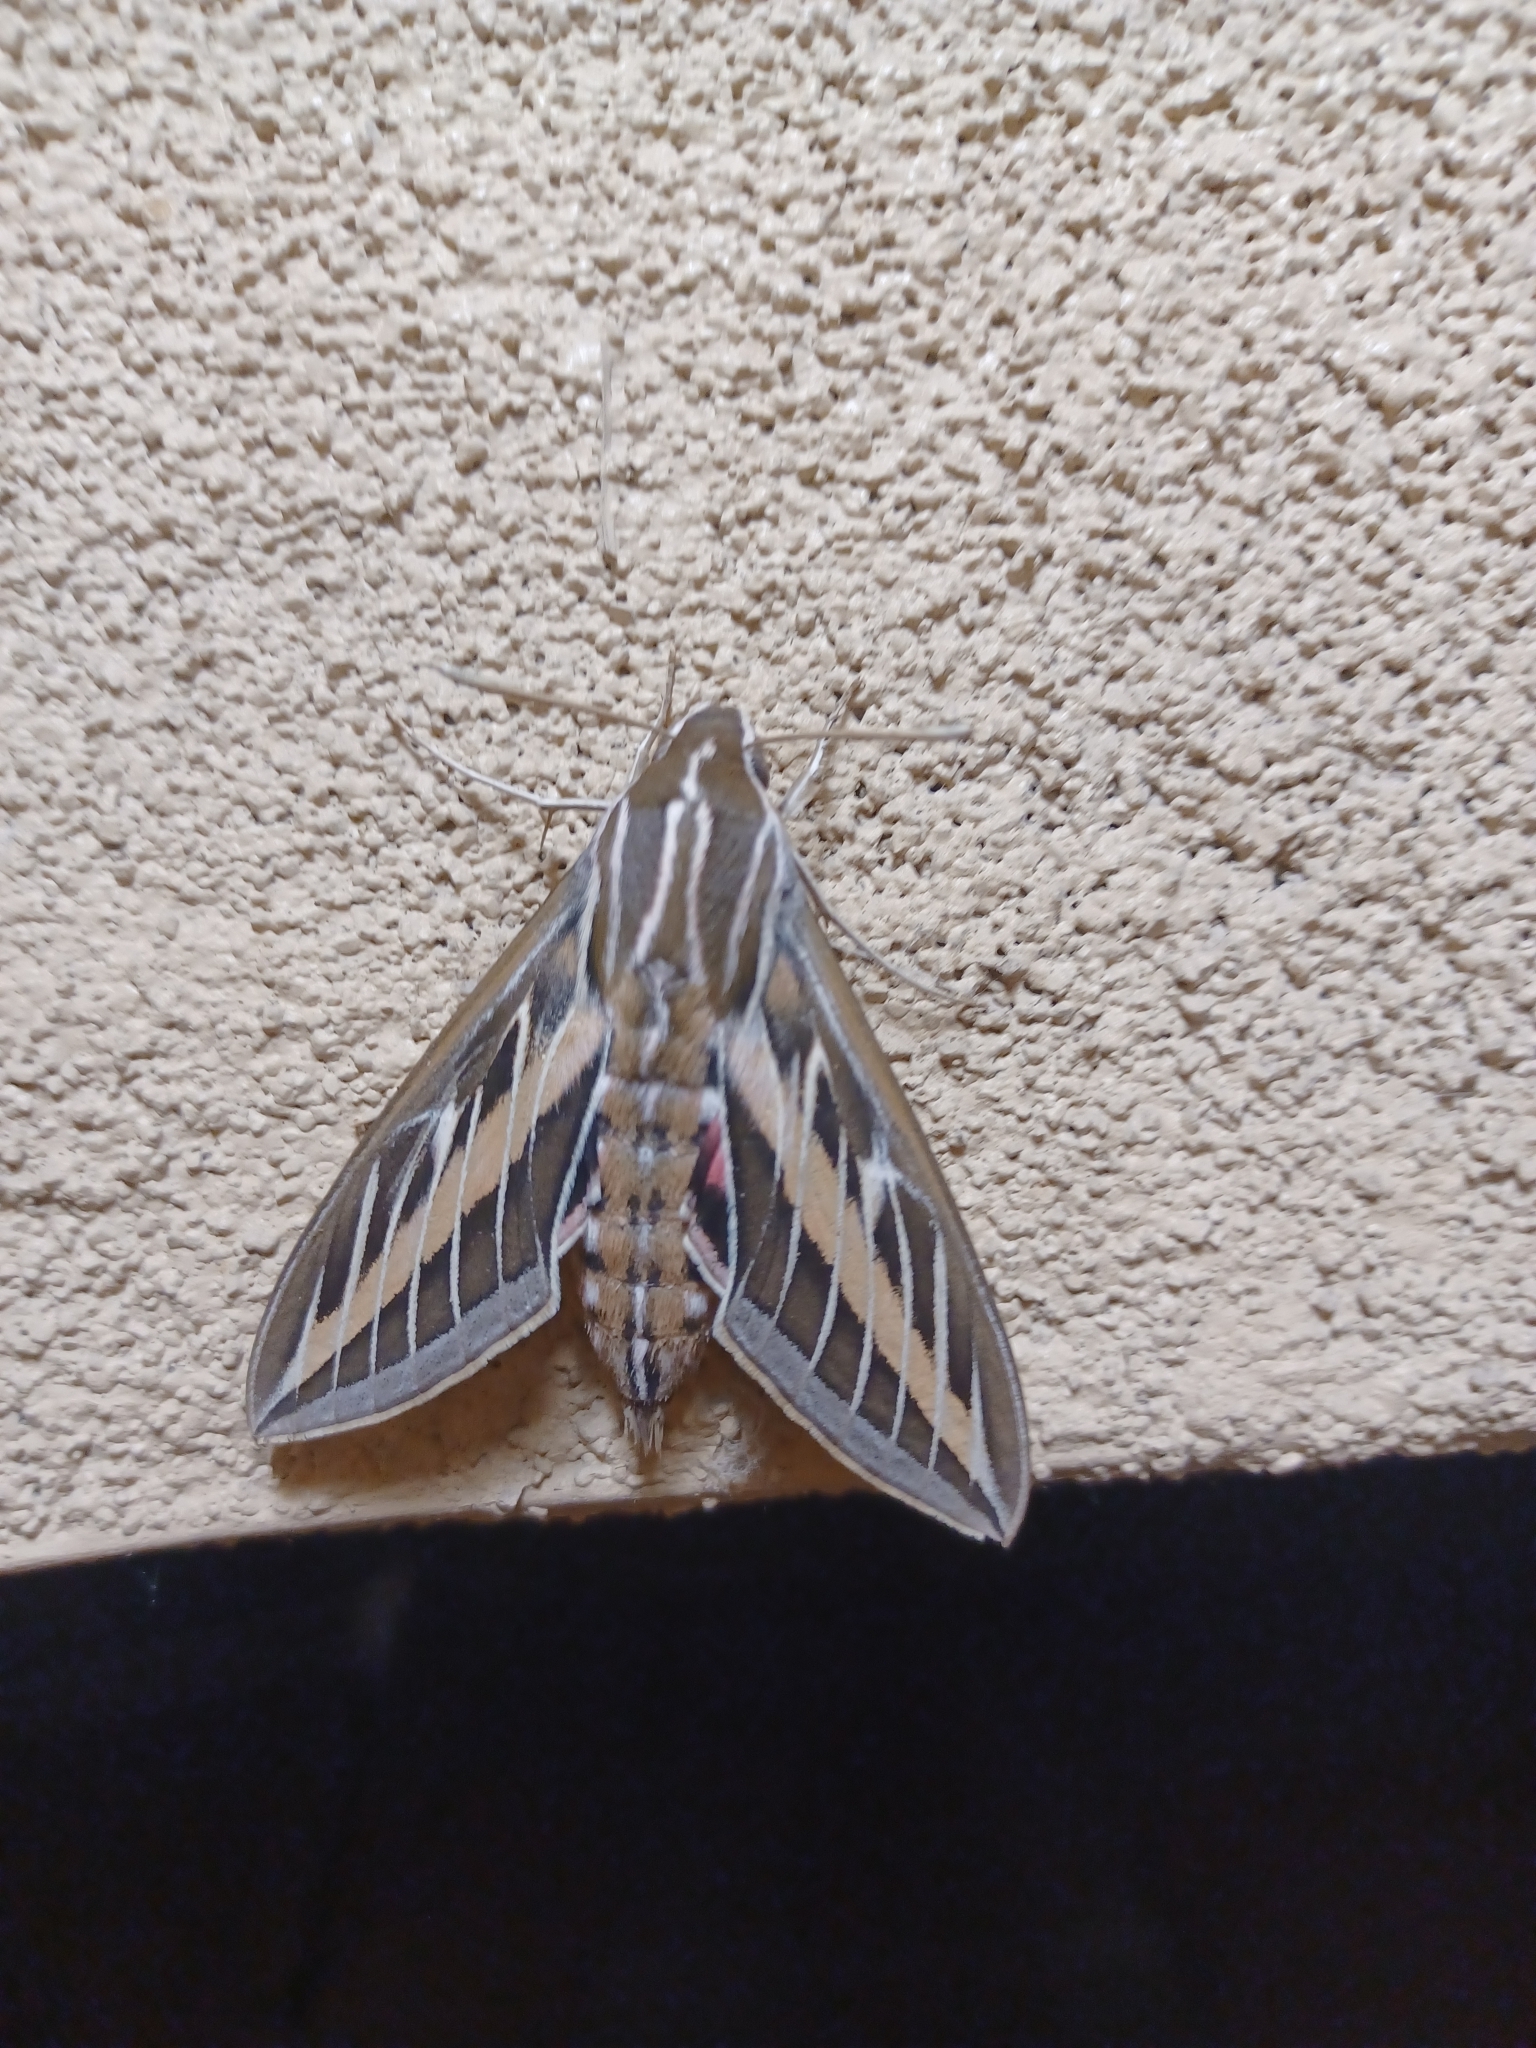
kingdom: Animalia
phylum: Arthropoda
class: Insecta
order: Lepidoptera
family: Sphingidae
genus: Hyles
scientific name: Hyles lineata
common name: White-lined sphinx
